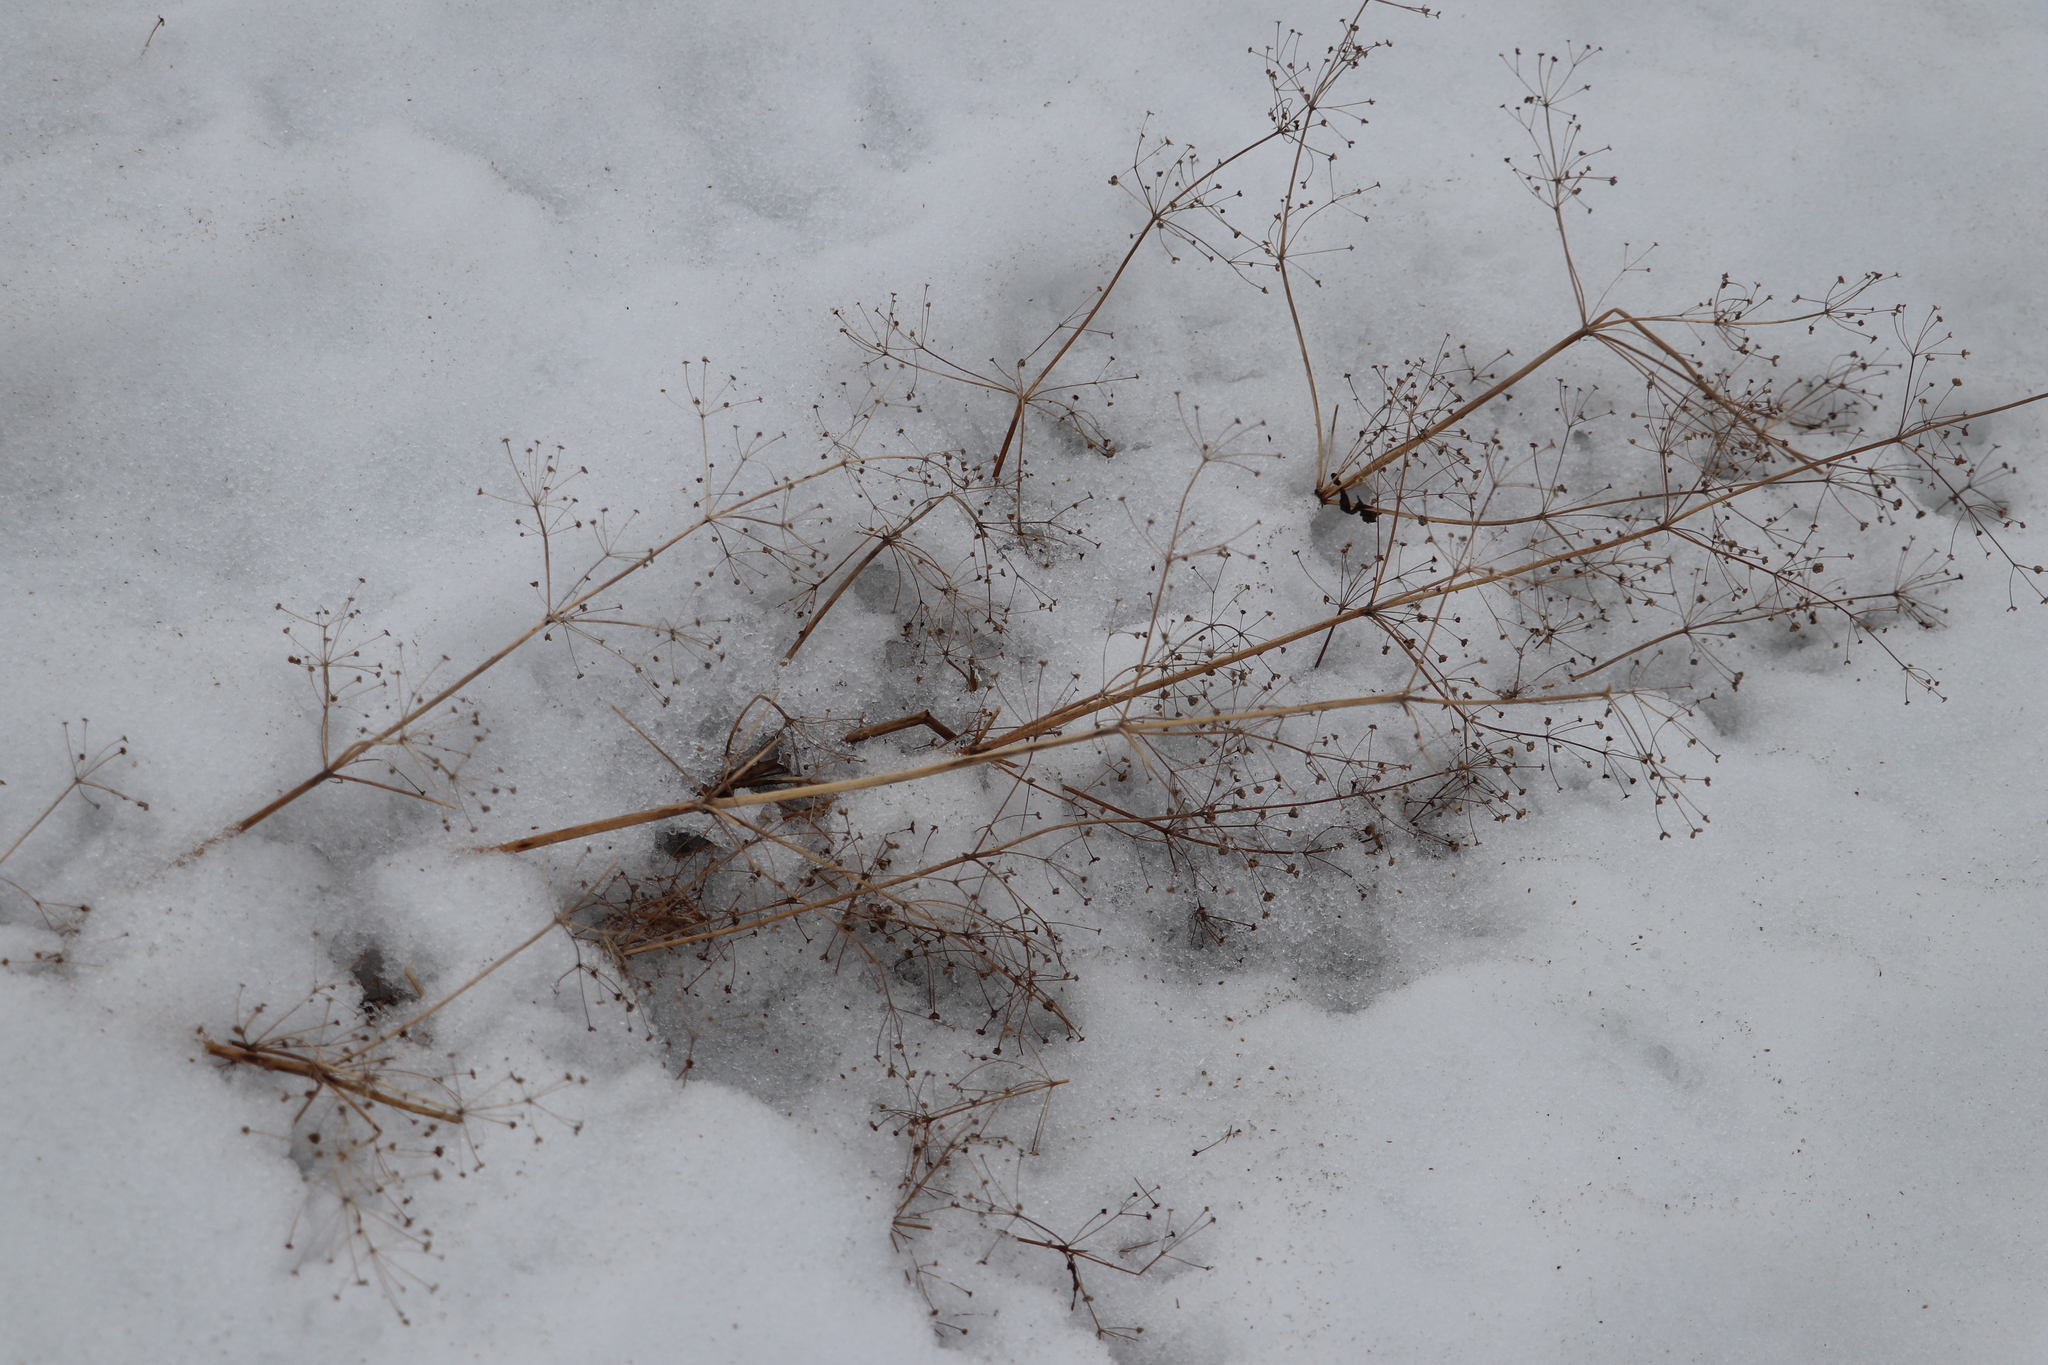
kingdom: Plantae
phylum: Tracheophyta
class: Liliopsida
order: Alismatales
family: Alismataceae
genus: Alisma
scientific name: Alisma plantago-aquatica
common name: Water-plantain
